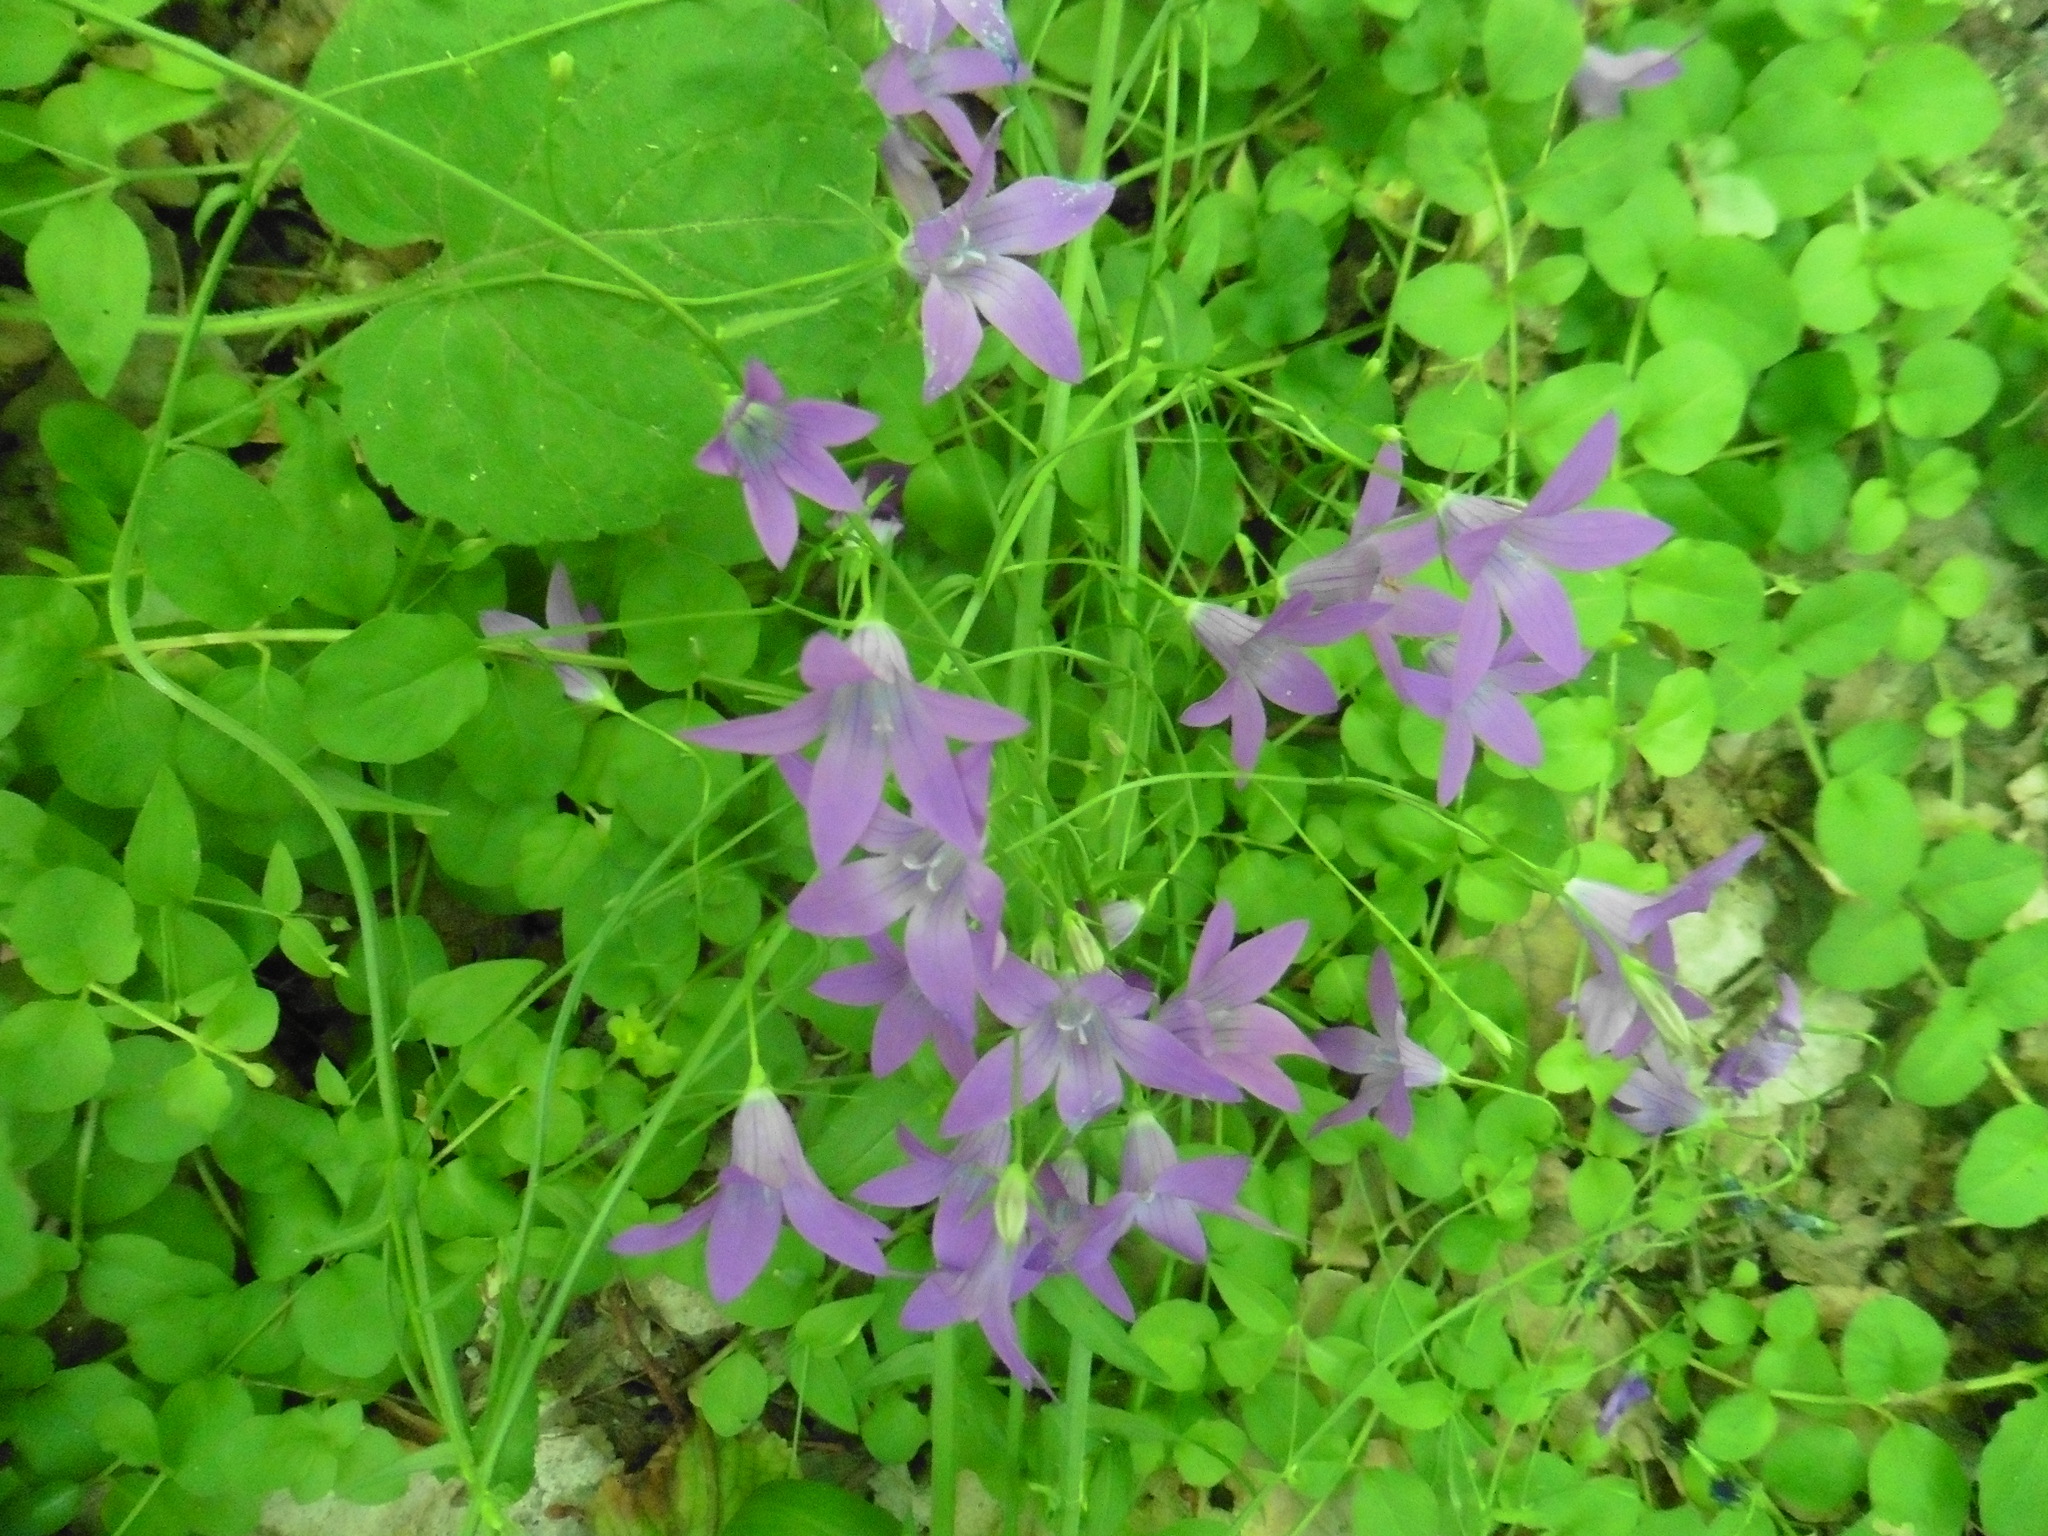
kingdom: Plantae
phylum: Tracheophyta
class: Magnoliopsida
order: Asterales
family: Campanulaceae
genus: Campanula
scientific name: Campanula patula
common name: Spreading bellflower
